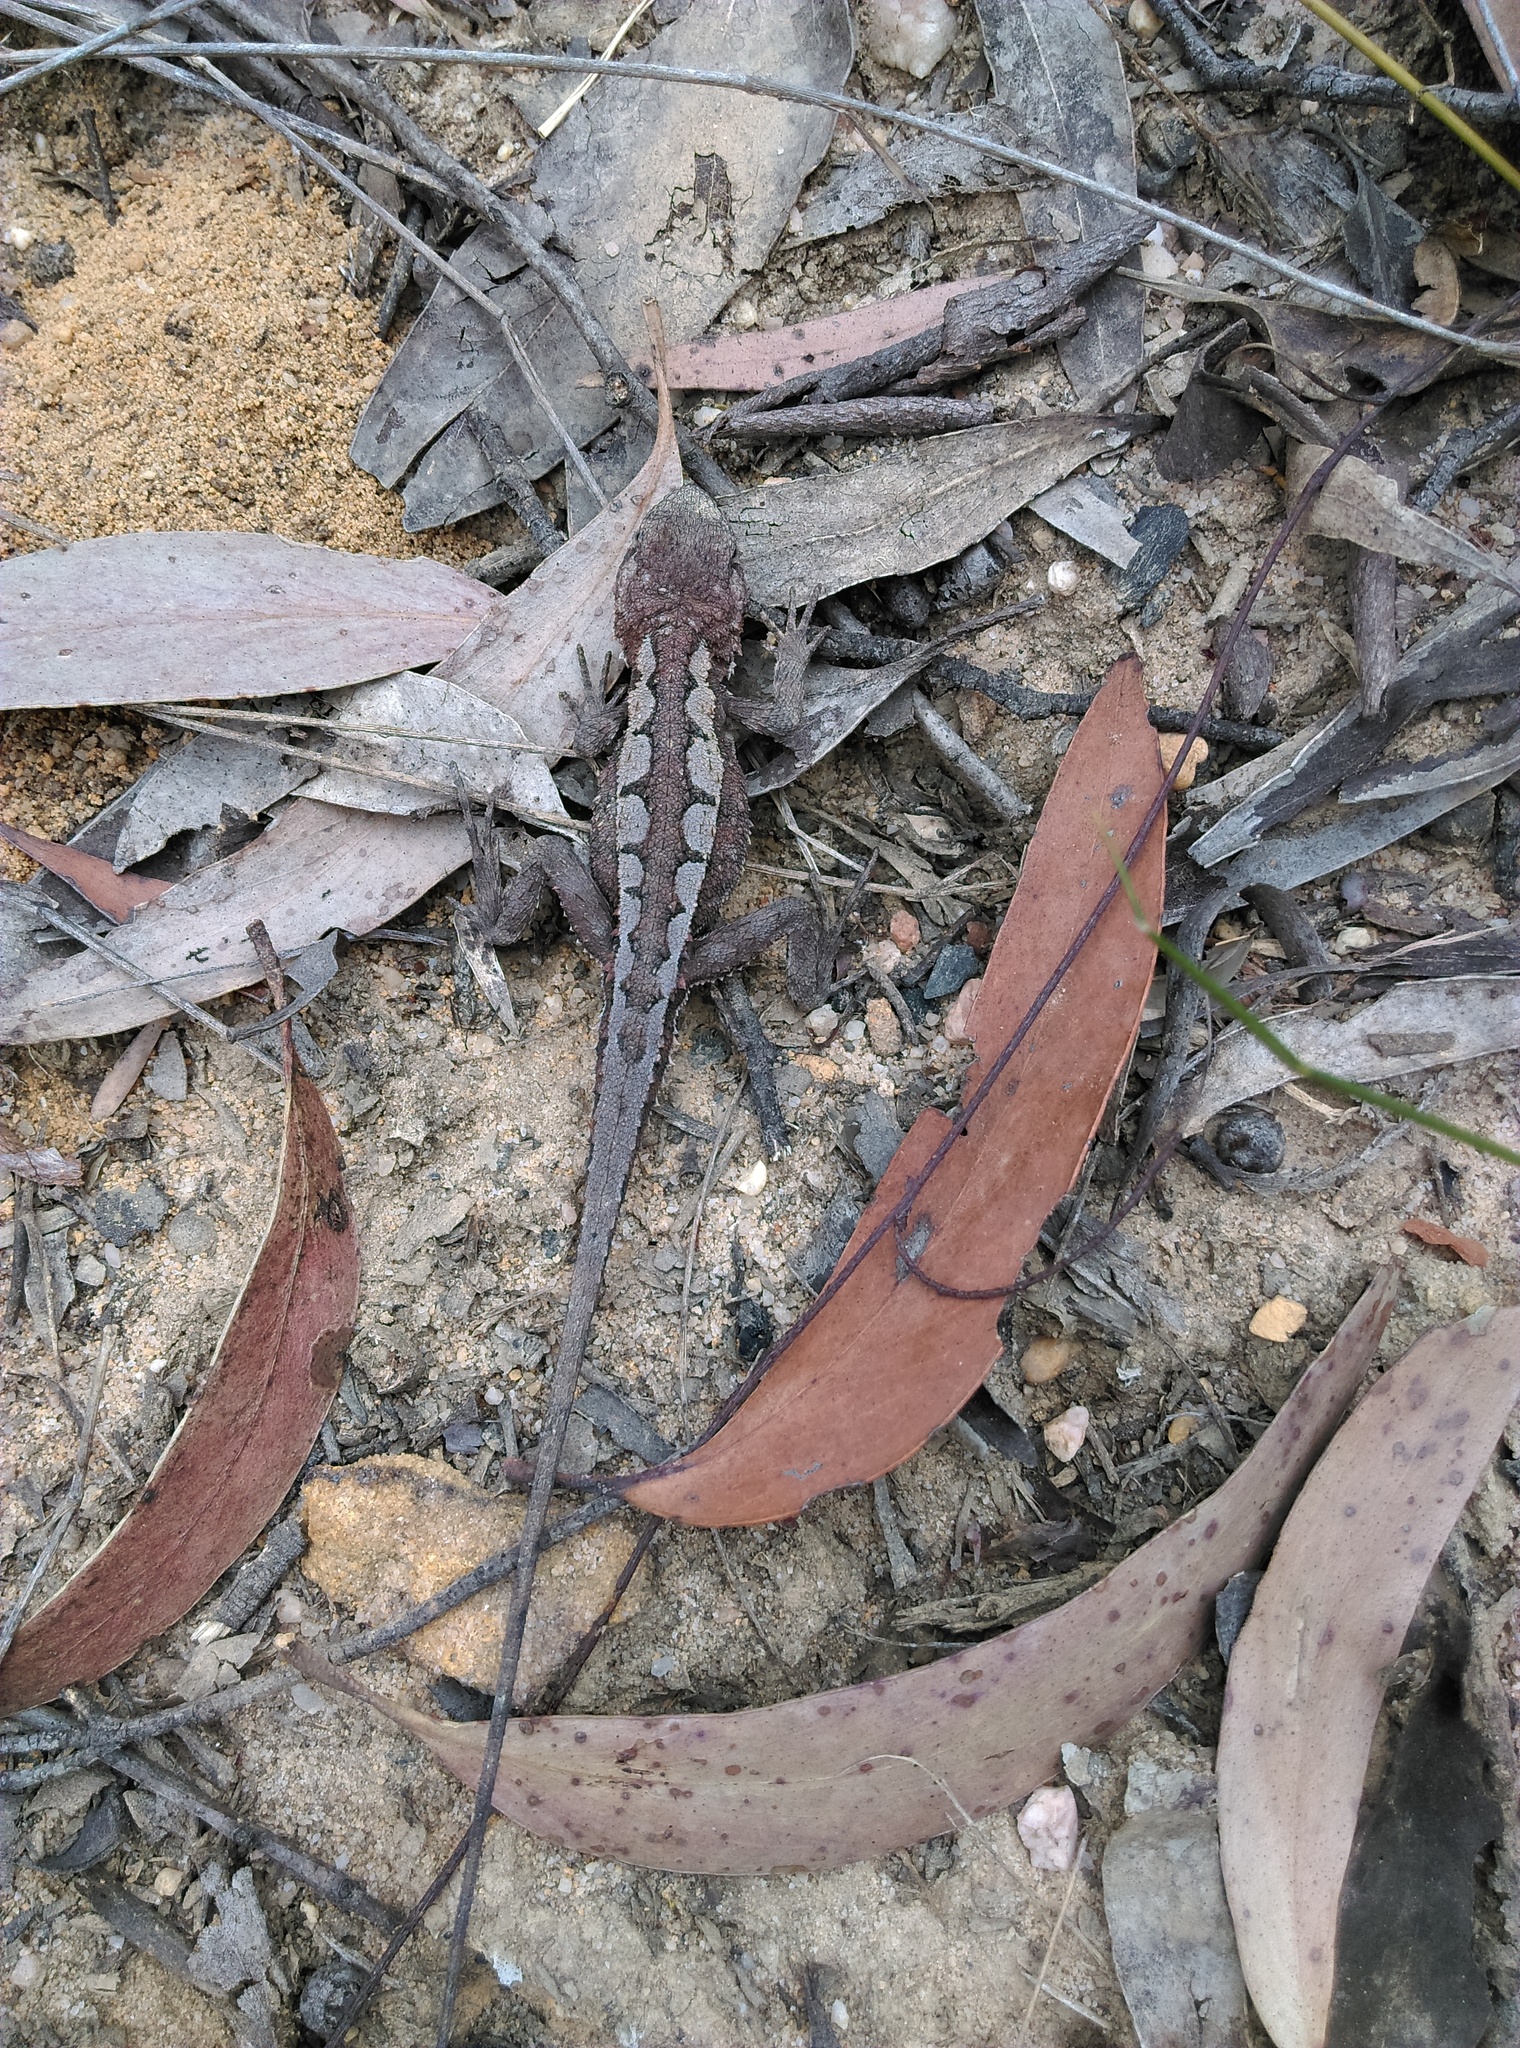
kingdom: Animalia
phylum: Chordata
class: Squamata
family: Agamidae
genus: Rankinia
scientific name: Rankinia diemensis
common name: Mountain dragon
